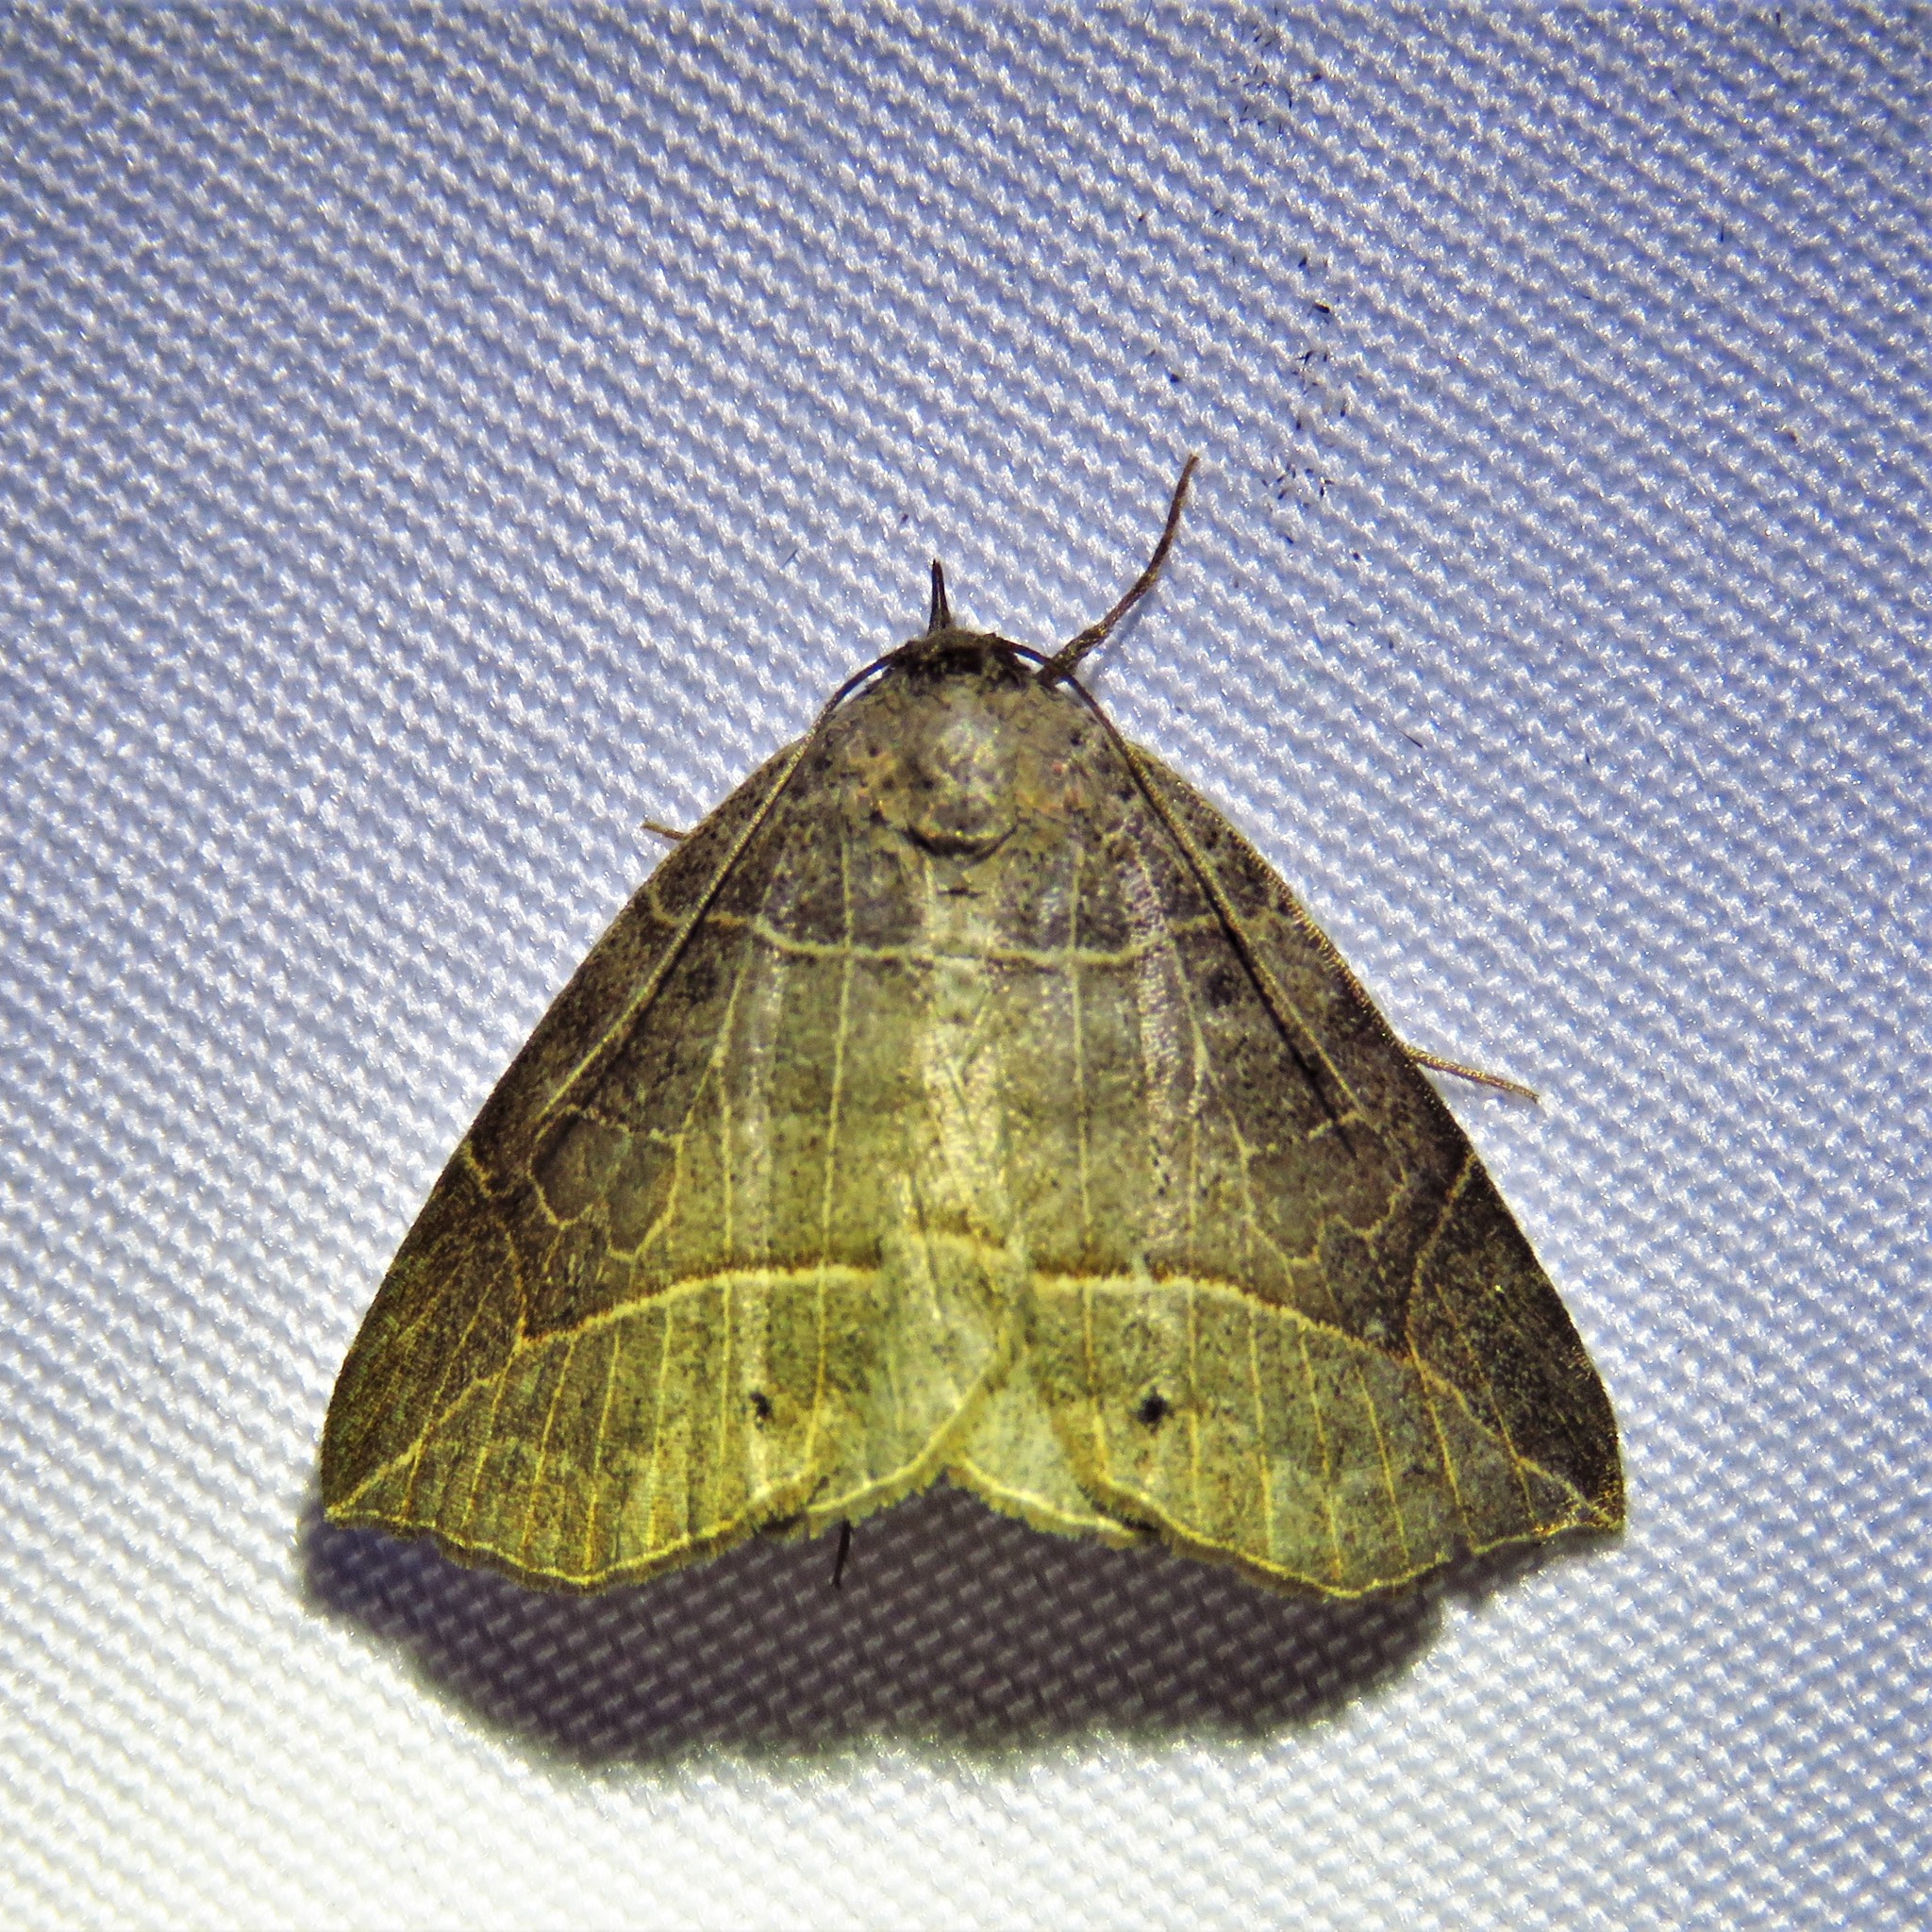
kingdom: Animalia
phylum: Arthropoda
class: Insecta
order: Lepidoptera
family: Erebidae
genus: Isogona
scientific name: Isogona tenuis
